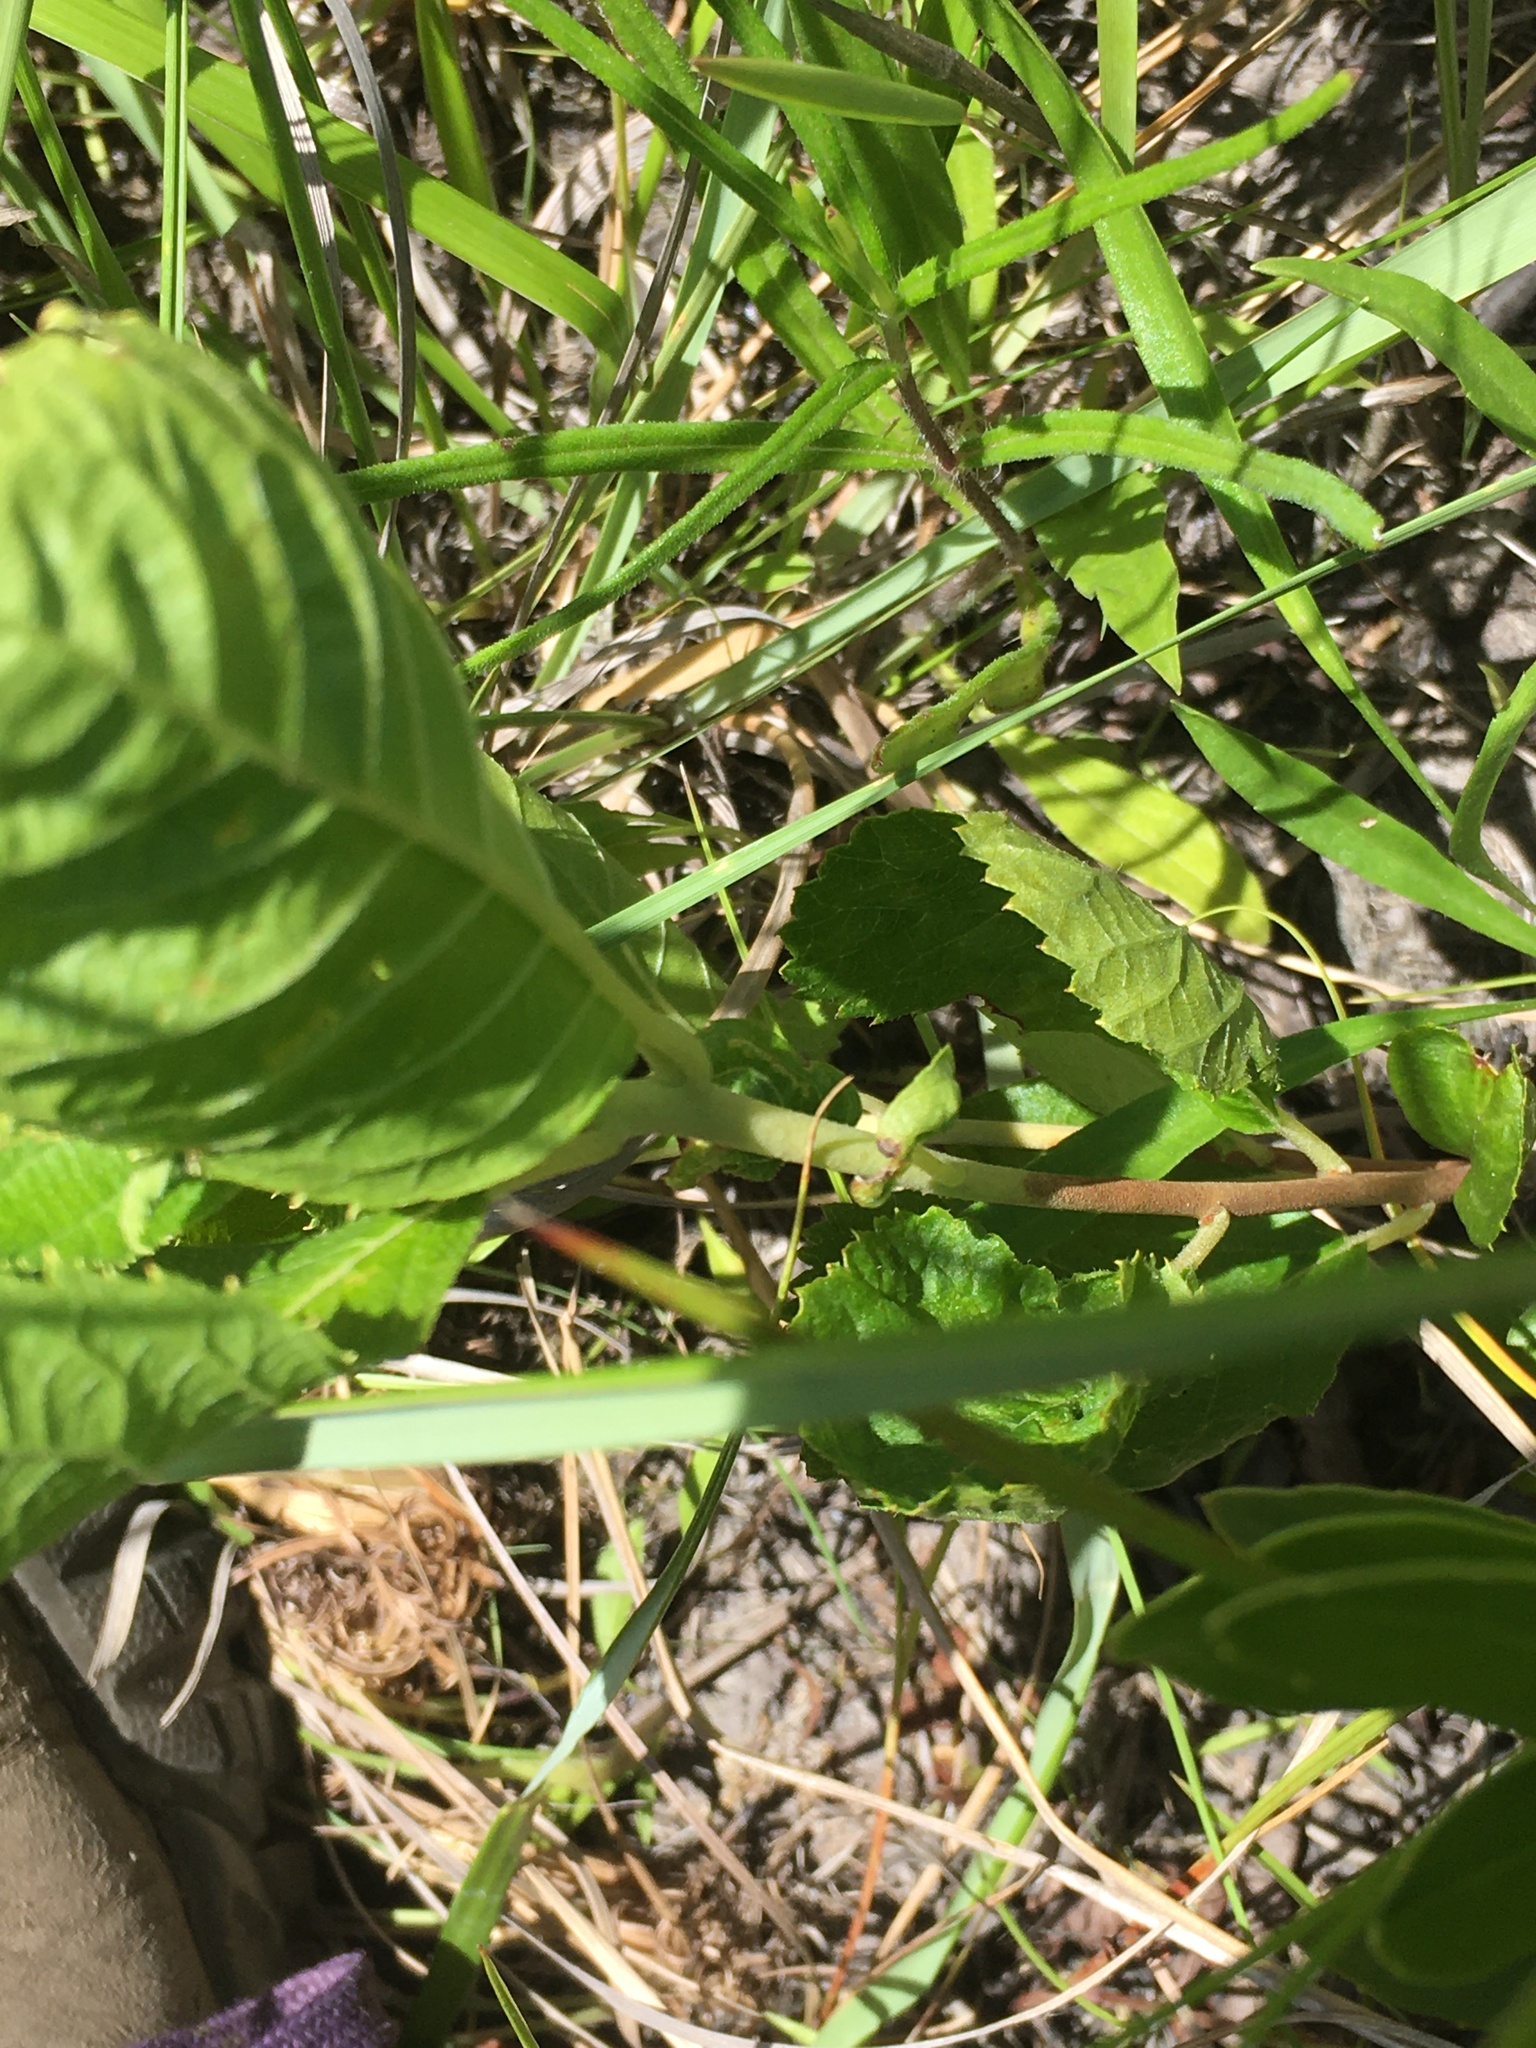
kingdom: Plantae
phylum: Tracheophyta
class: Magnoliopsida
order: Asterales
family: Asteraceae
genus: Parthenium
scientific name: Parthenium integrifolium
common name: American feverfew
